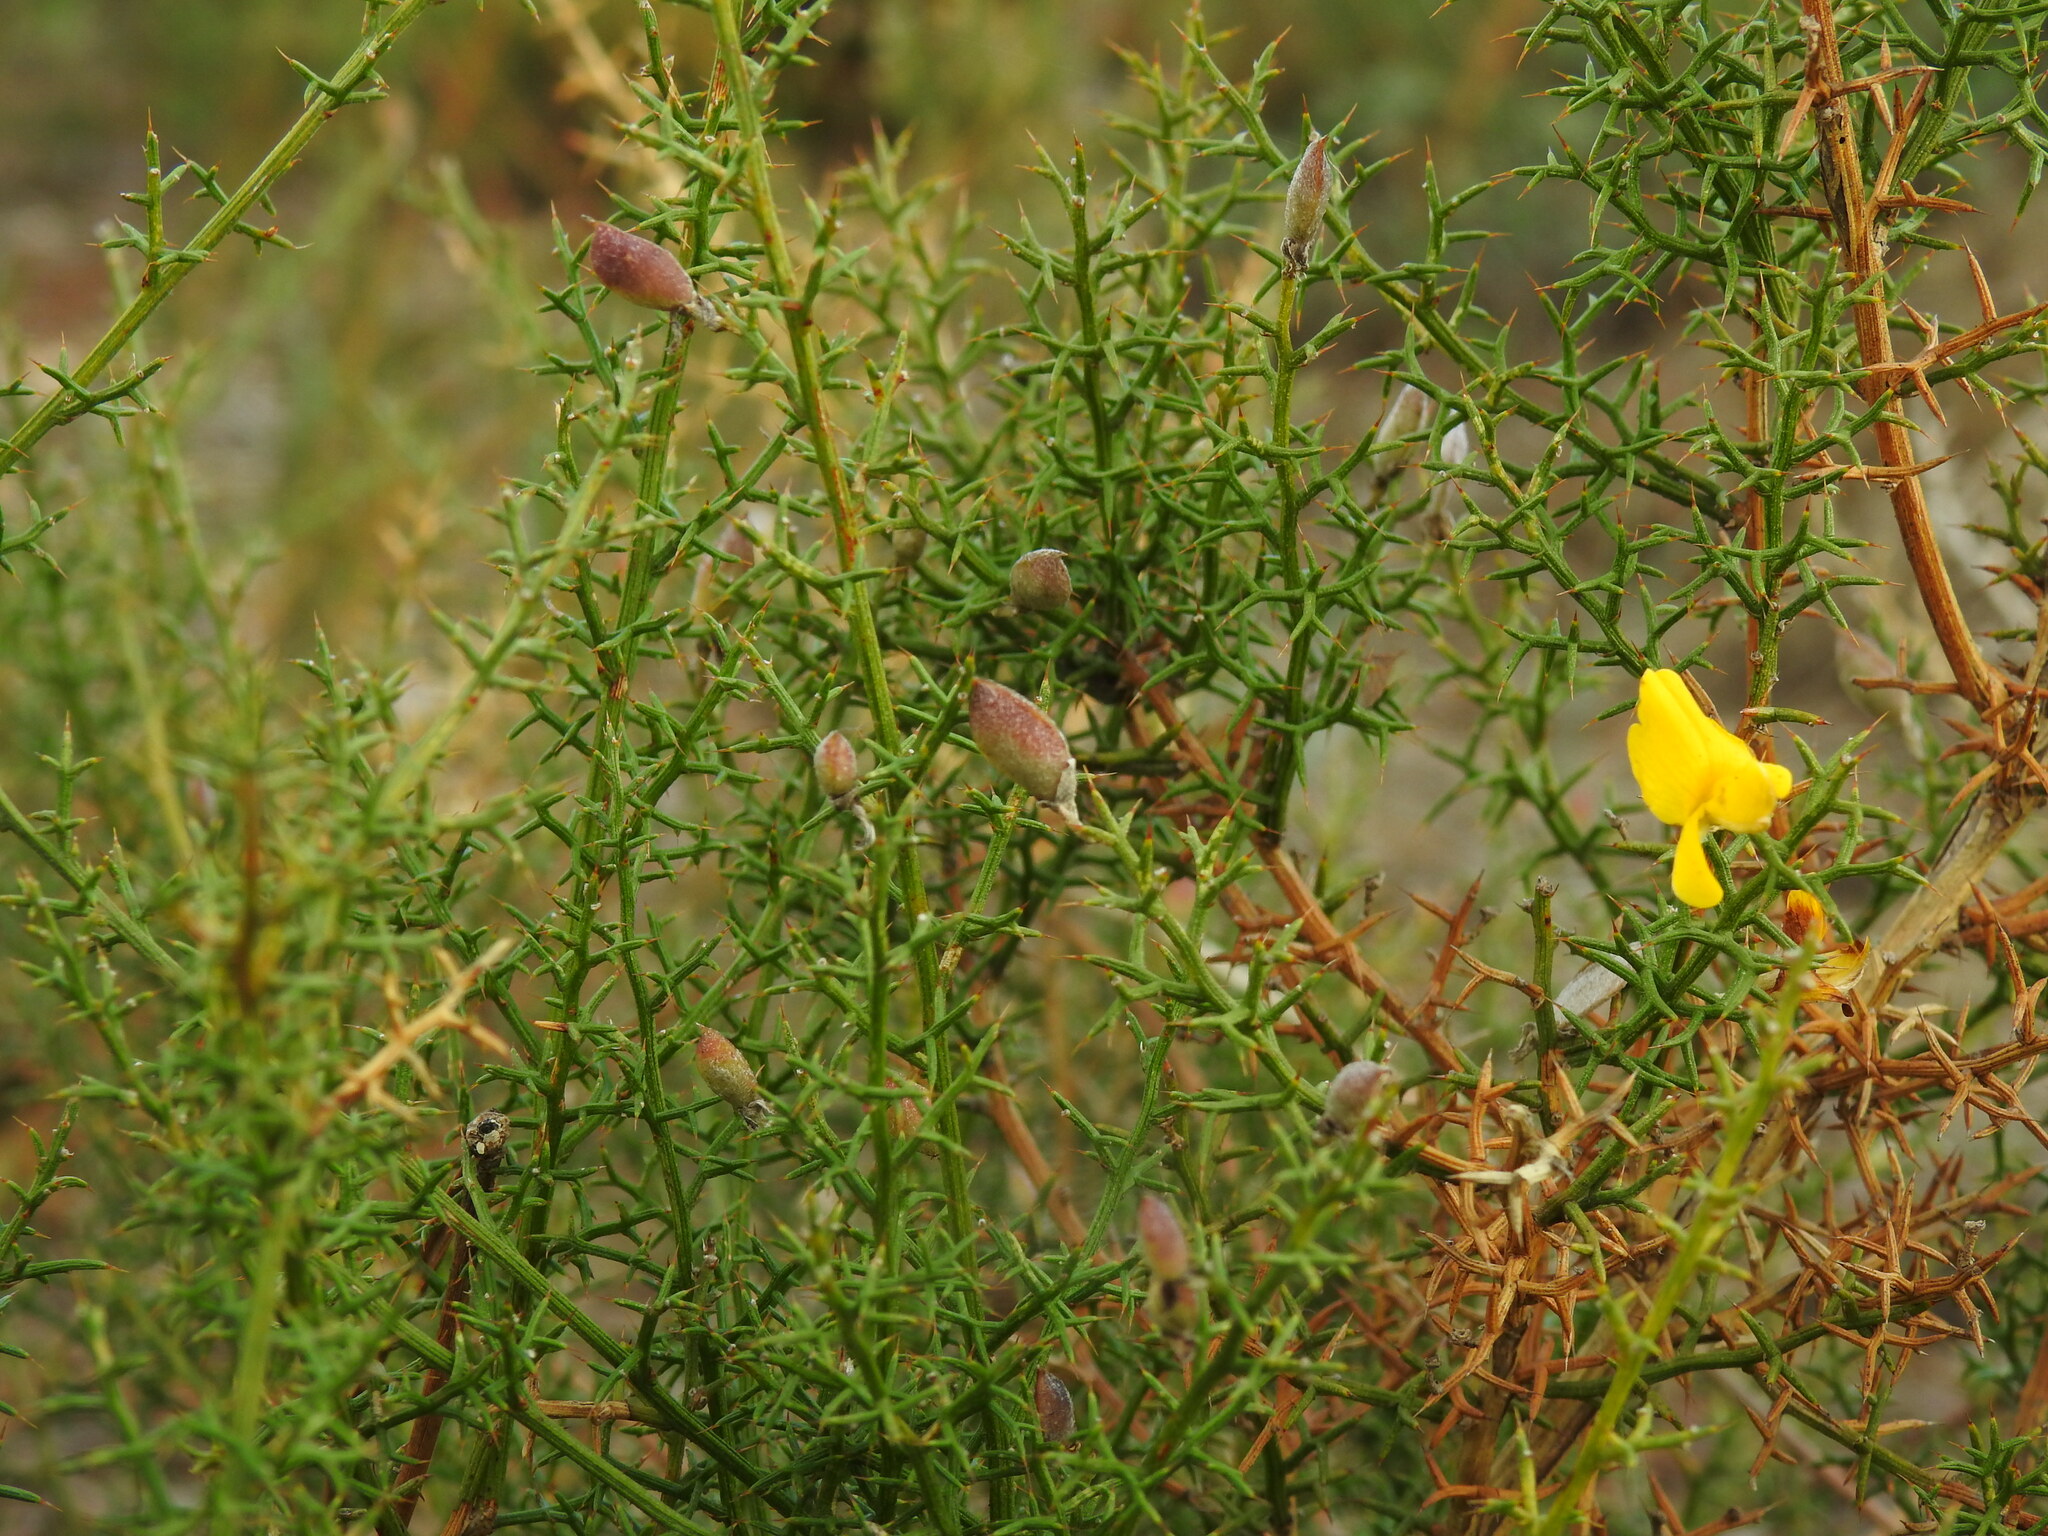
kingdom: Plantae
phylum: Tracheophyta
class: Magnoliopsida
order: Fabales
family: Fabaceae
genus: Stauracanthus
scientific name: Stauracanthus boivinii
